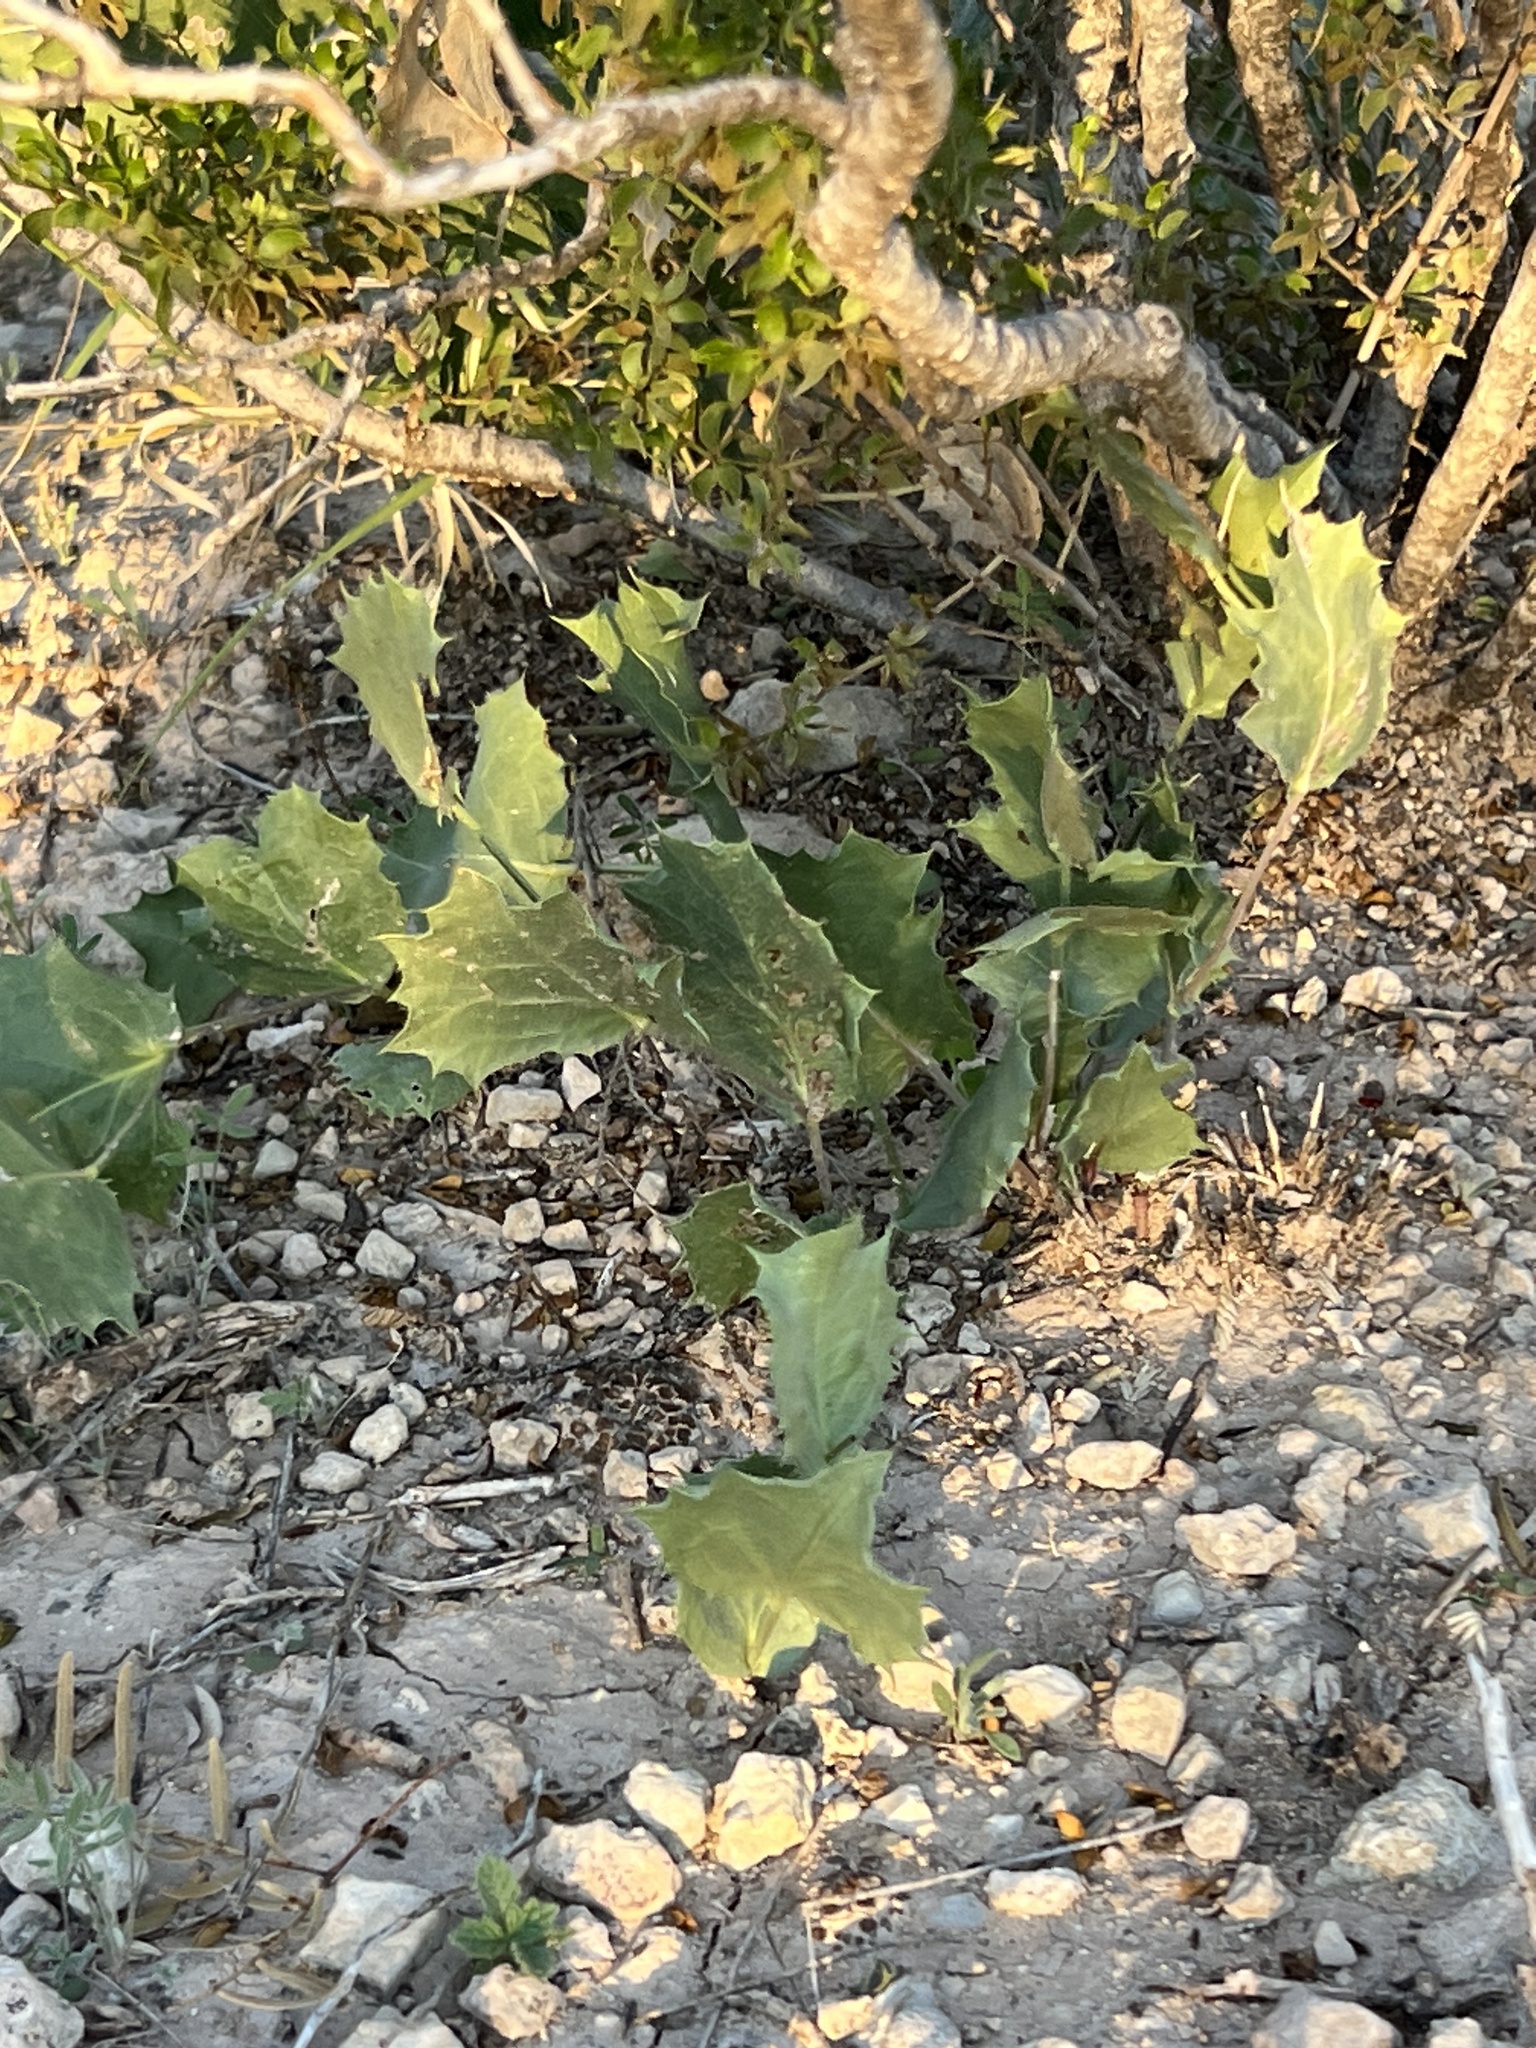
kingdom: Plantae
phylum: Tracheophyta
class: Magnoliopsida
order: Asterales
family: Asteraceae
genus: Acourtia
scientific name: Acourtia nana
